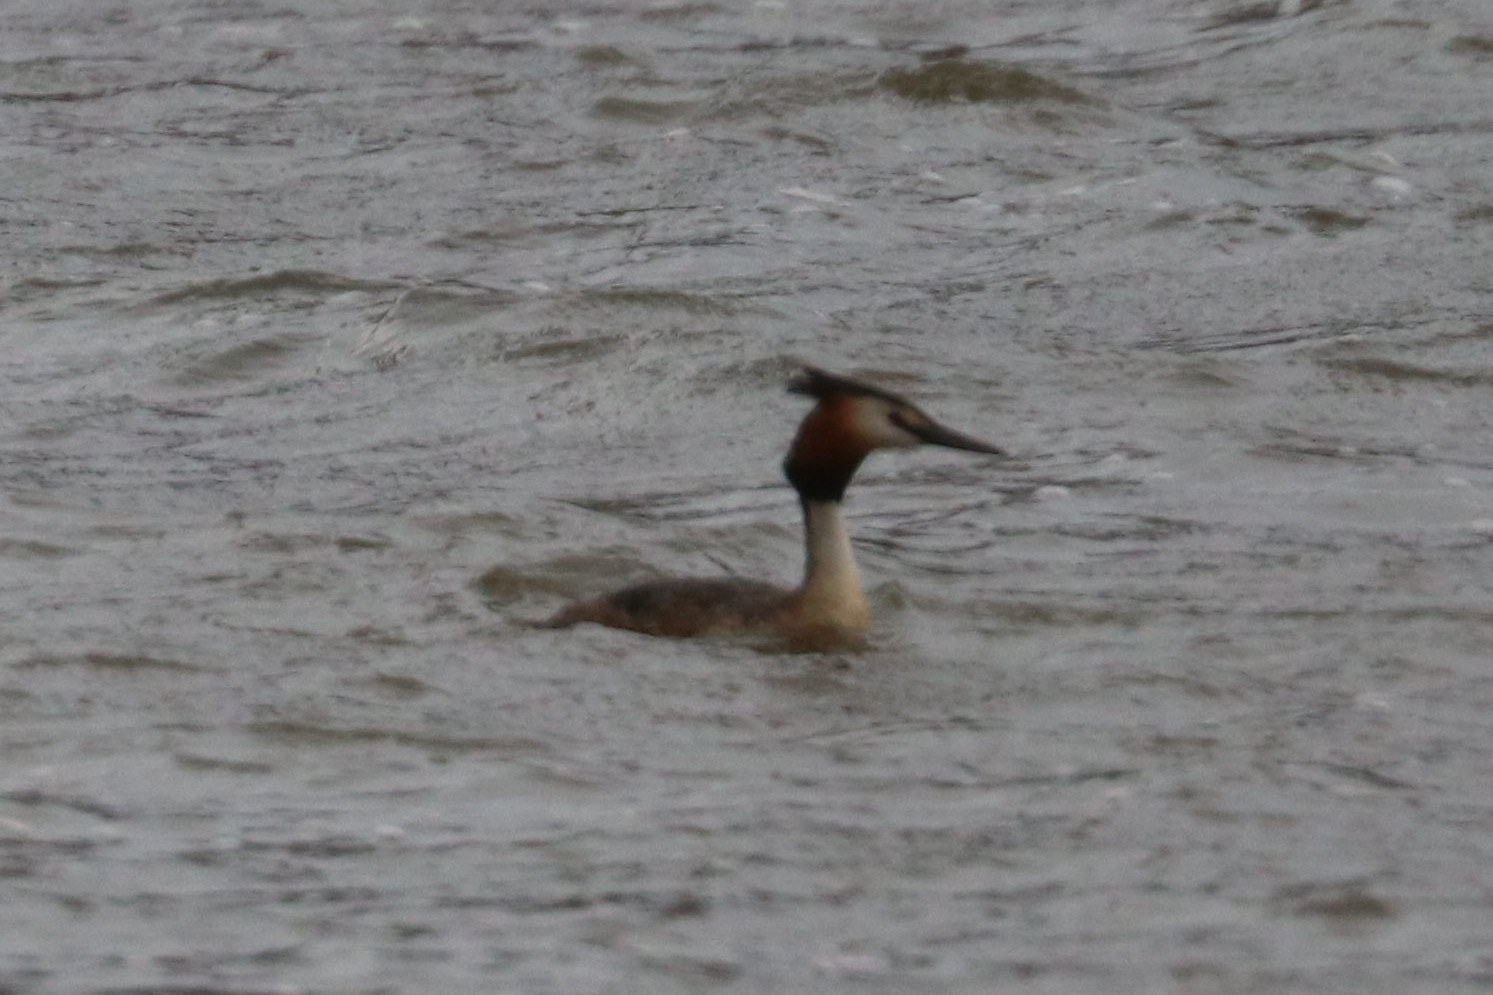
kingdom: Animalia
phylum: Chordata
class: Aves
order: Podicipediformes
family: Podicipedidae
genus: Podiceps
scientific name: Podiceps cristatus
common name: Great crested grebe
